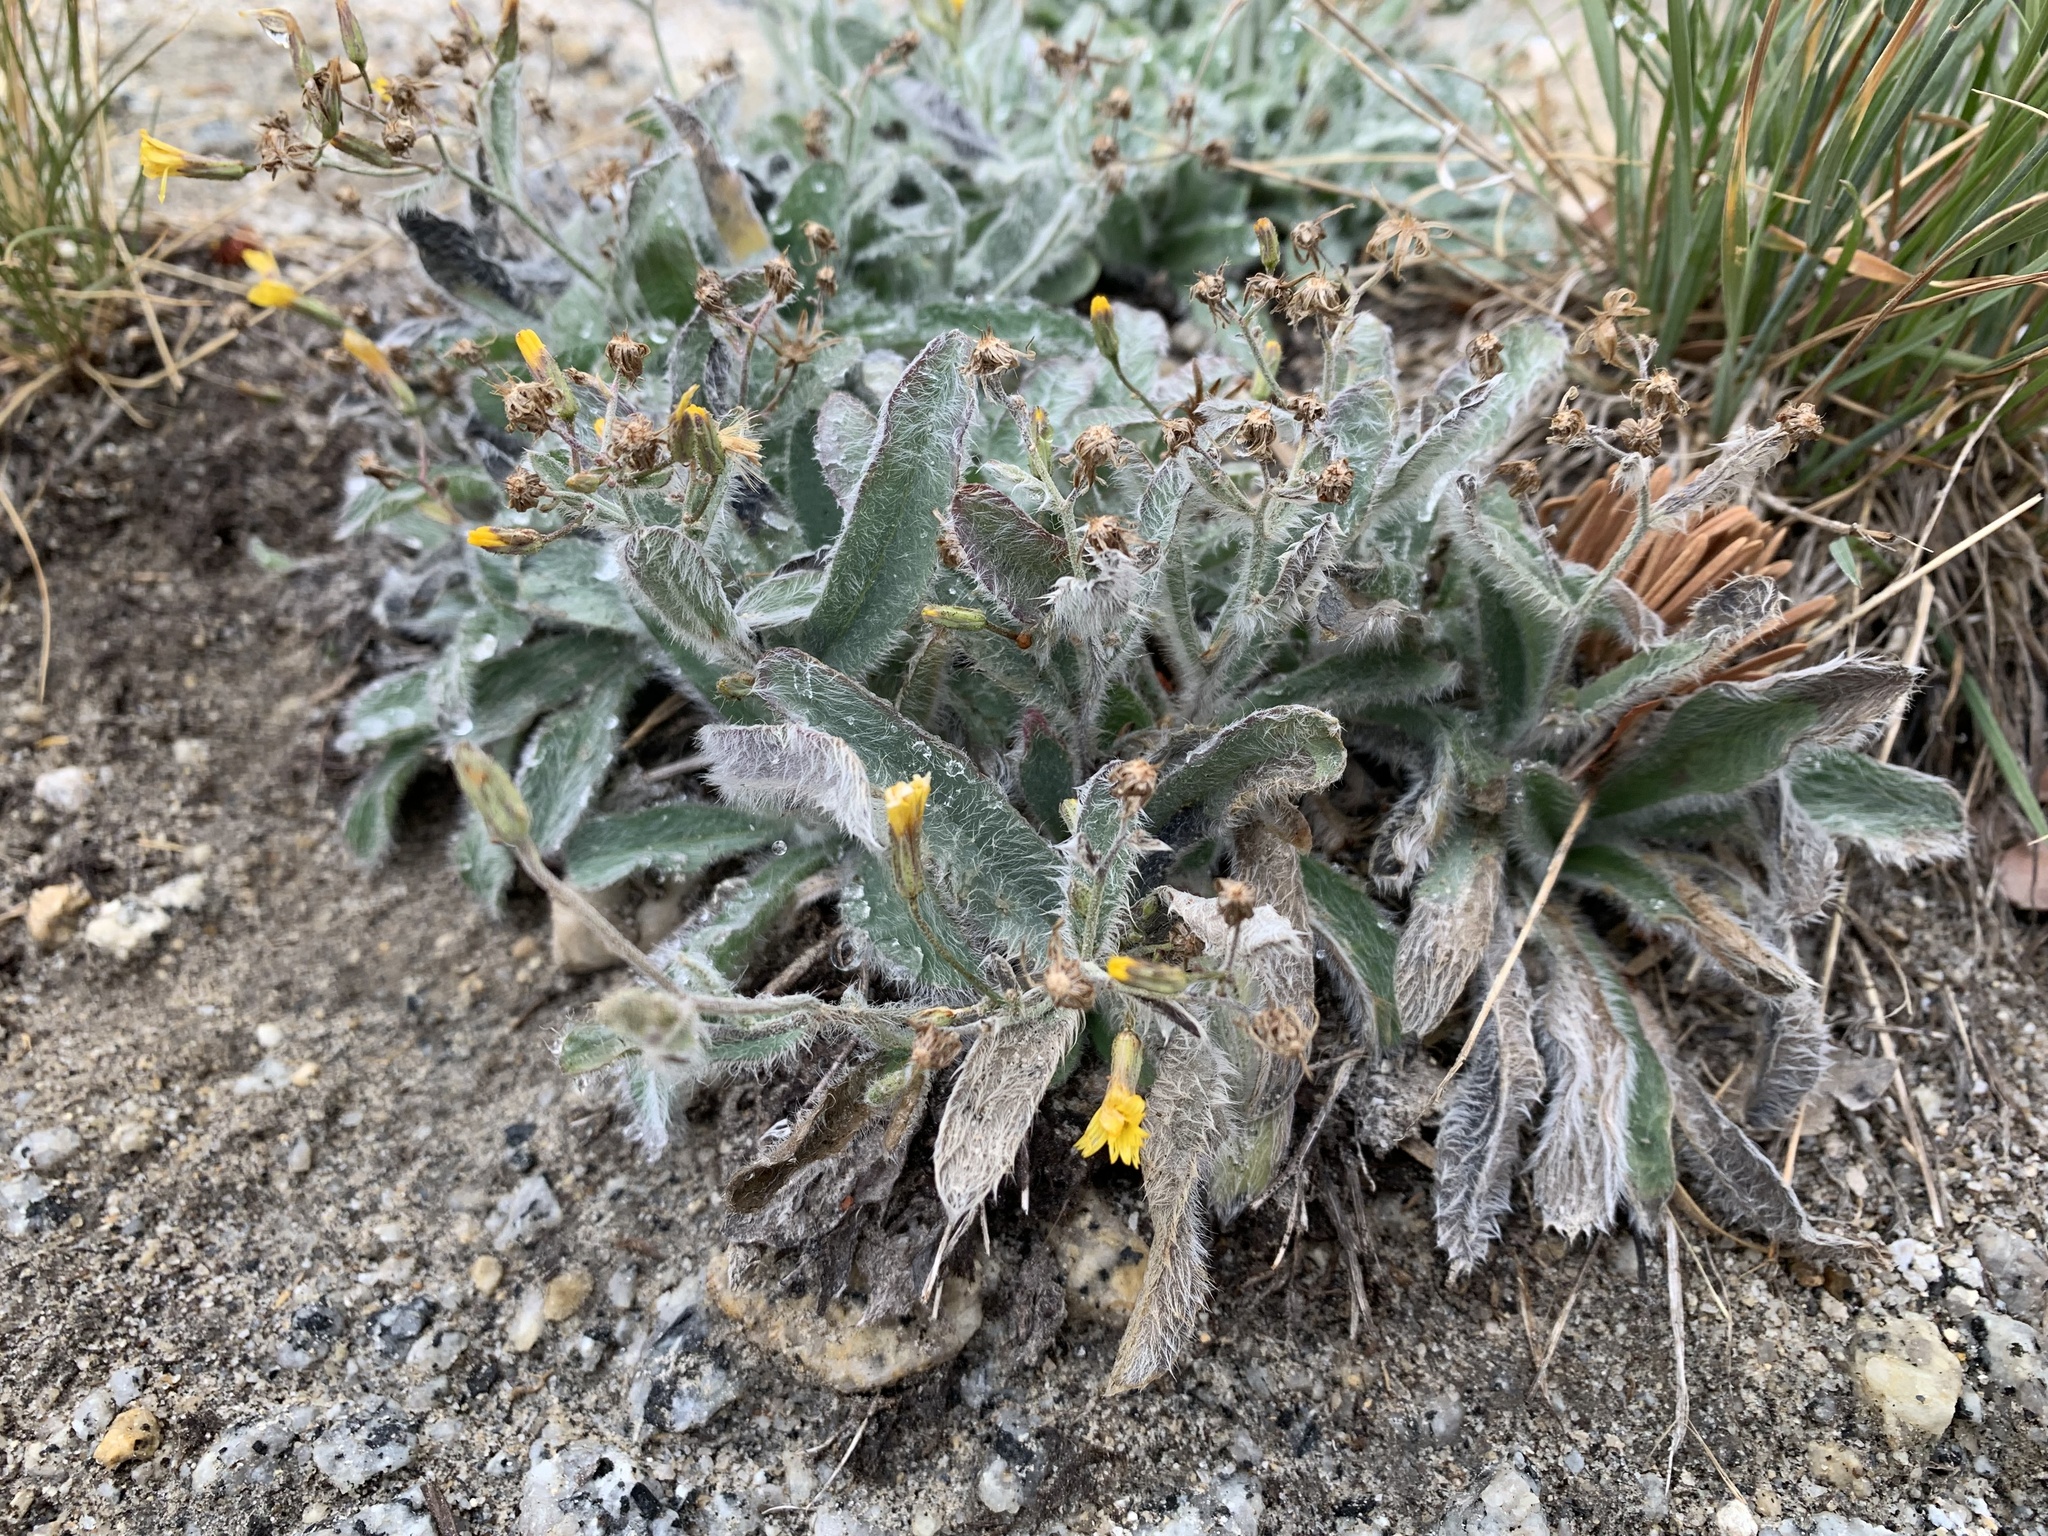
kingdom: Plantae
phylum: Tracheophyta
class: Magnoliopsida
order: Asterales
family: Asteraceae
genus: Hieracium
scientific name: Hieracium horridum
